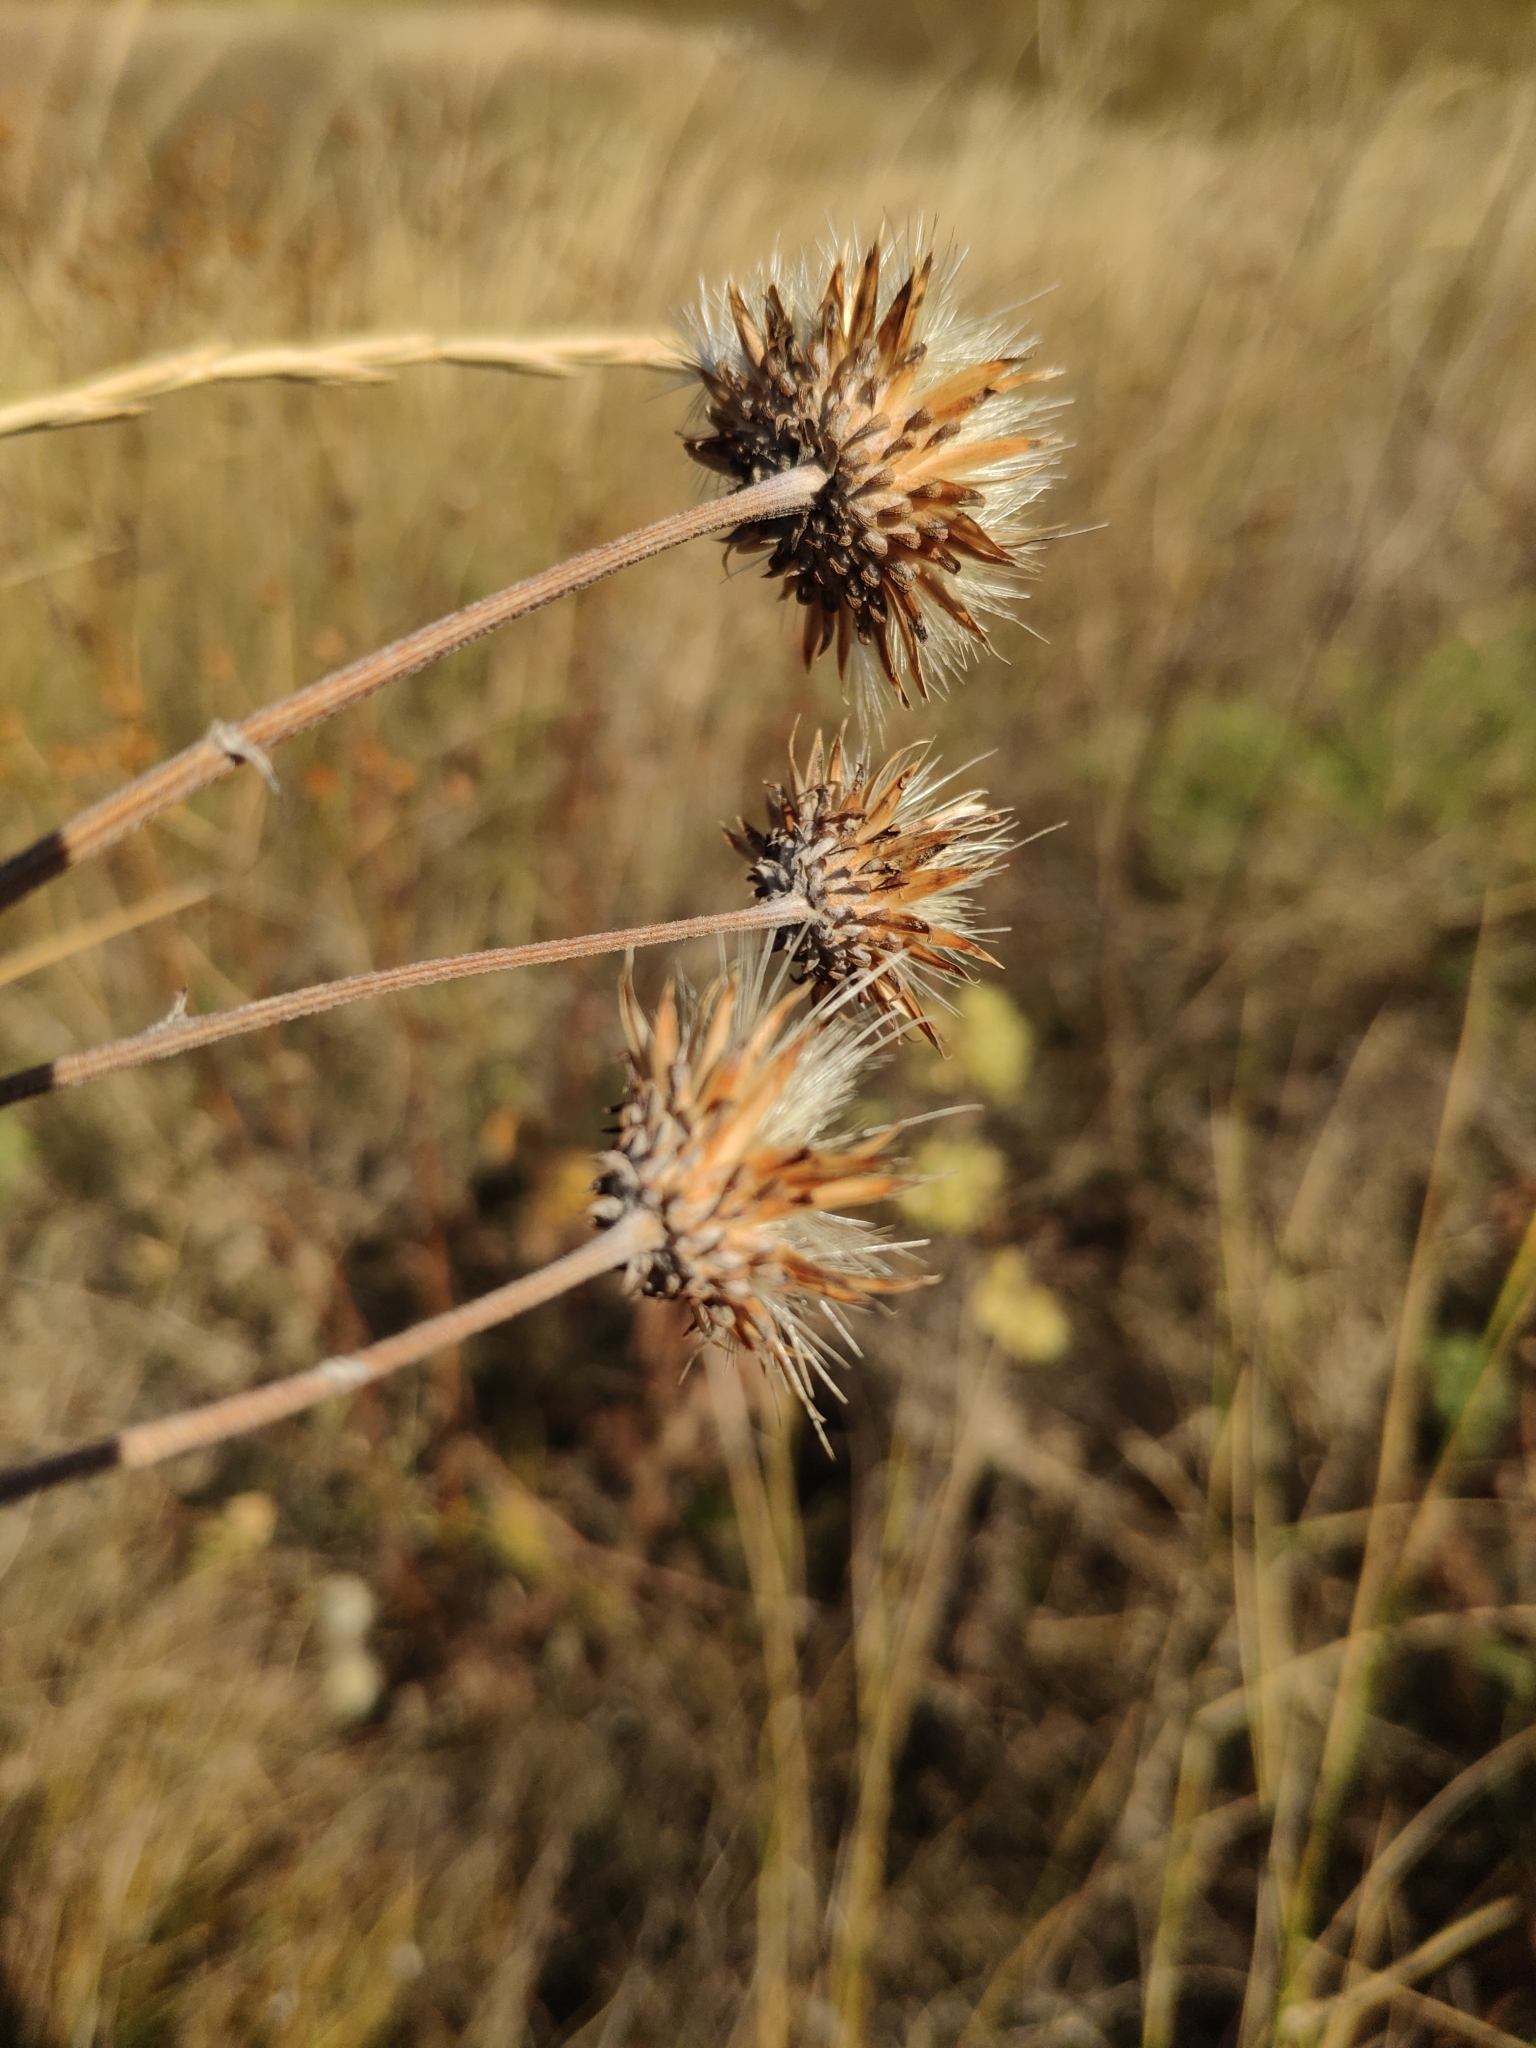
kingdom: Plantae
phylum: Tracheophyta
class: Magnoliopsida
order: Asterales
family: Asteraceae
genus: Jurinea
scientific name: Jurinea ledebourii
